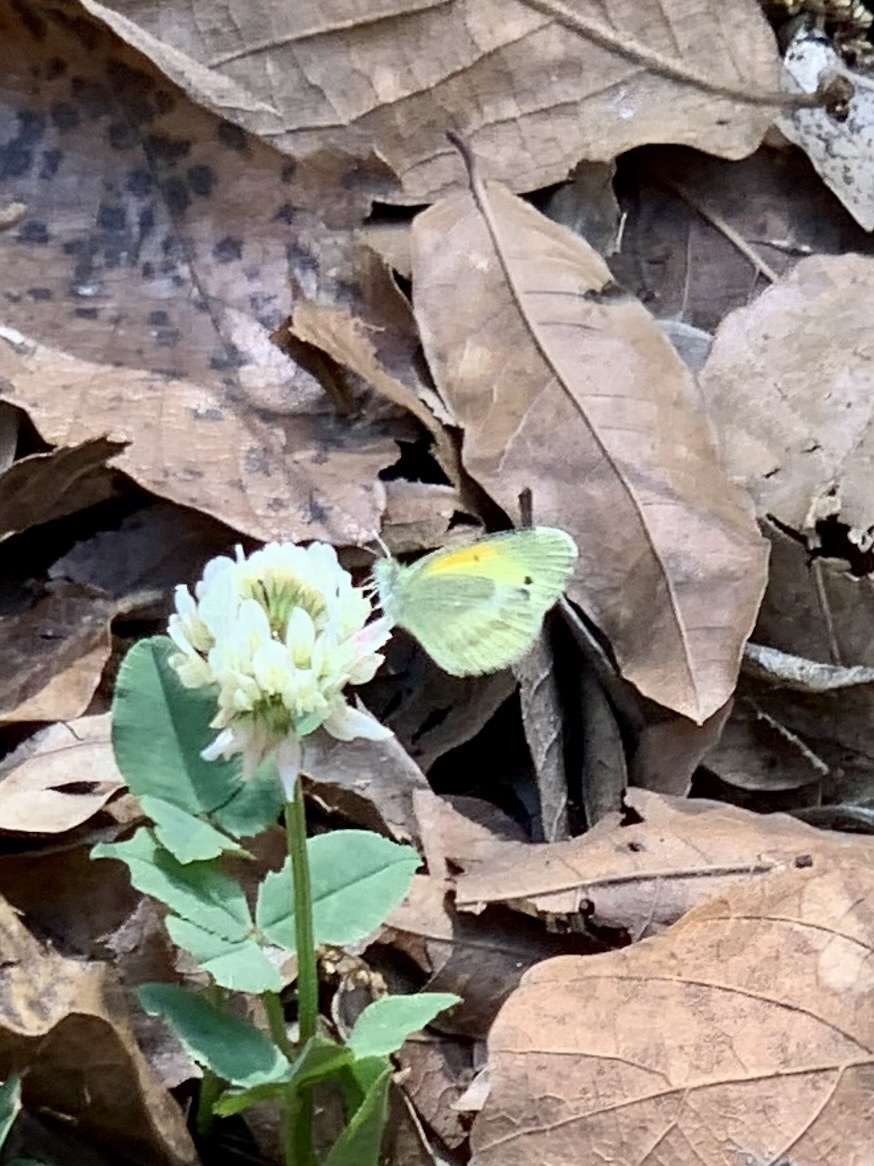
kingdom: Animalia
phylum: Arthropoda
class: Insecta
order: Lepidoptera
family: Pieridae
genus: Nathalis
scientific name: Nathalis iole
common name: Dainty sulphur
